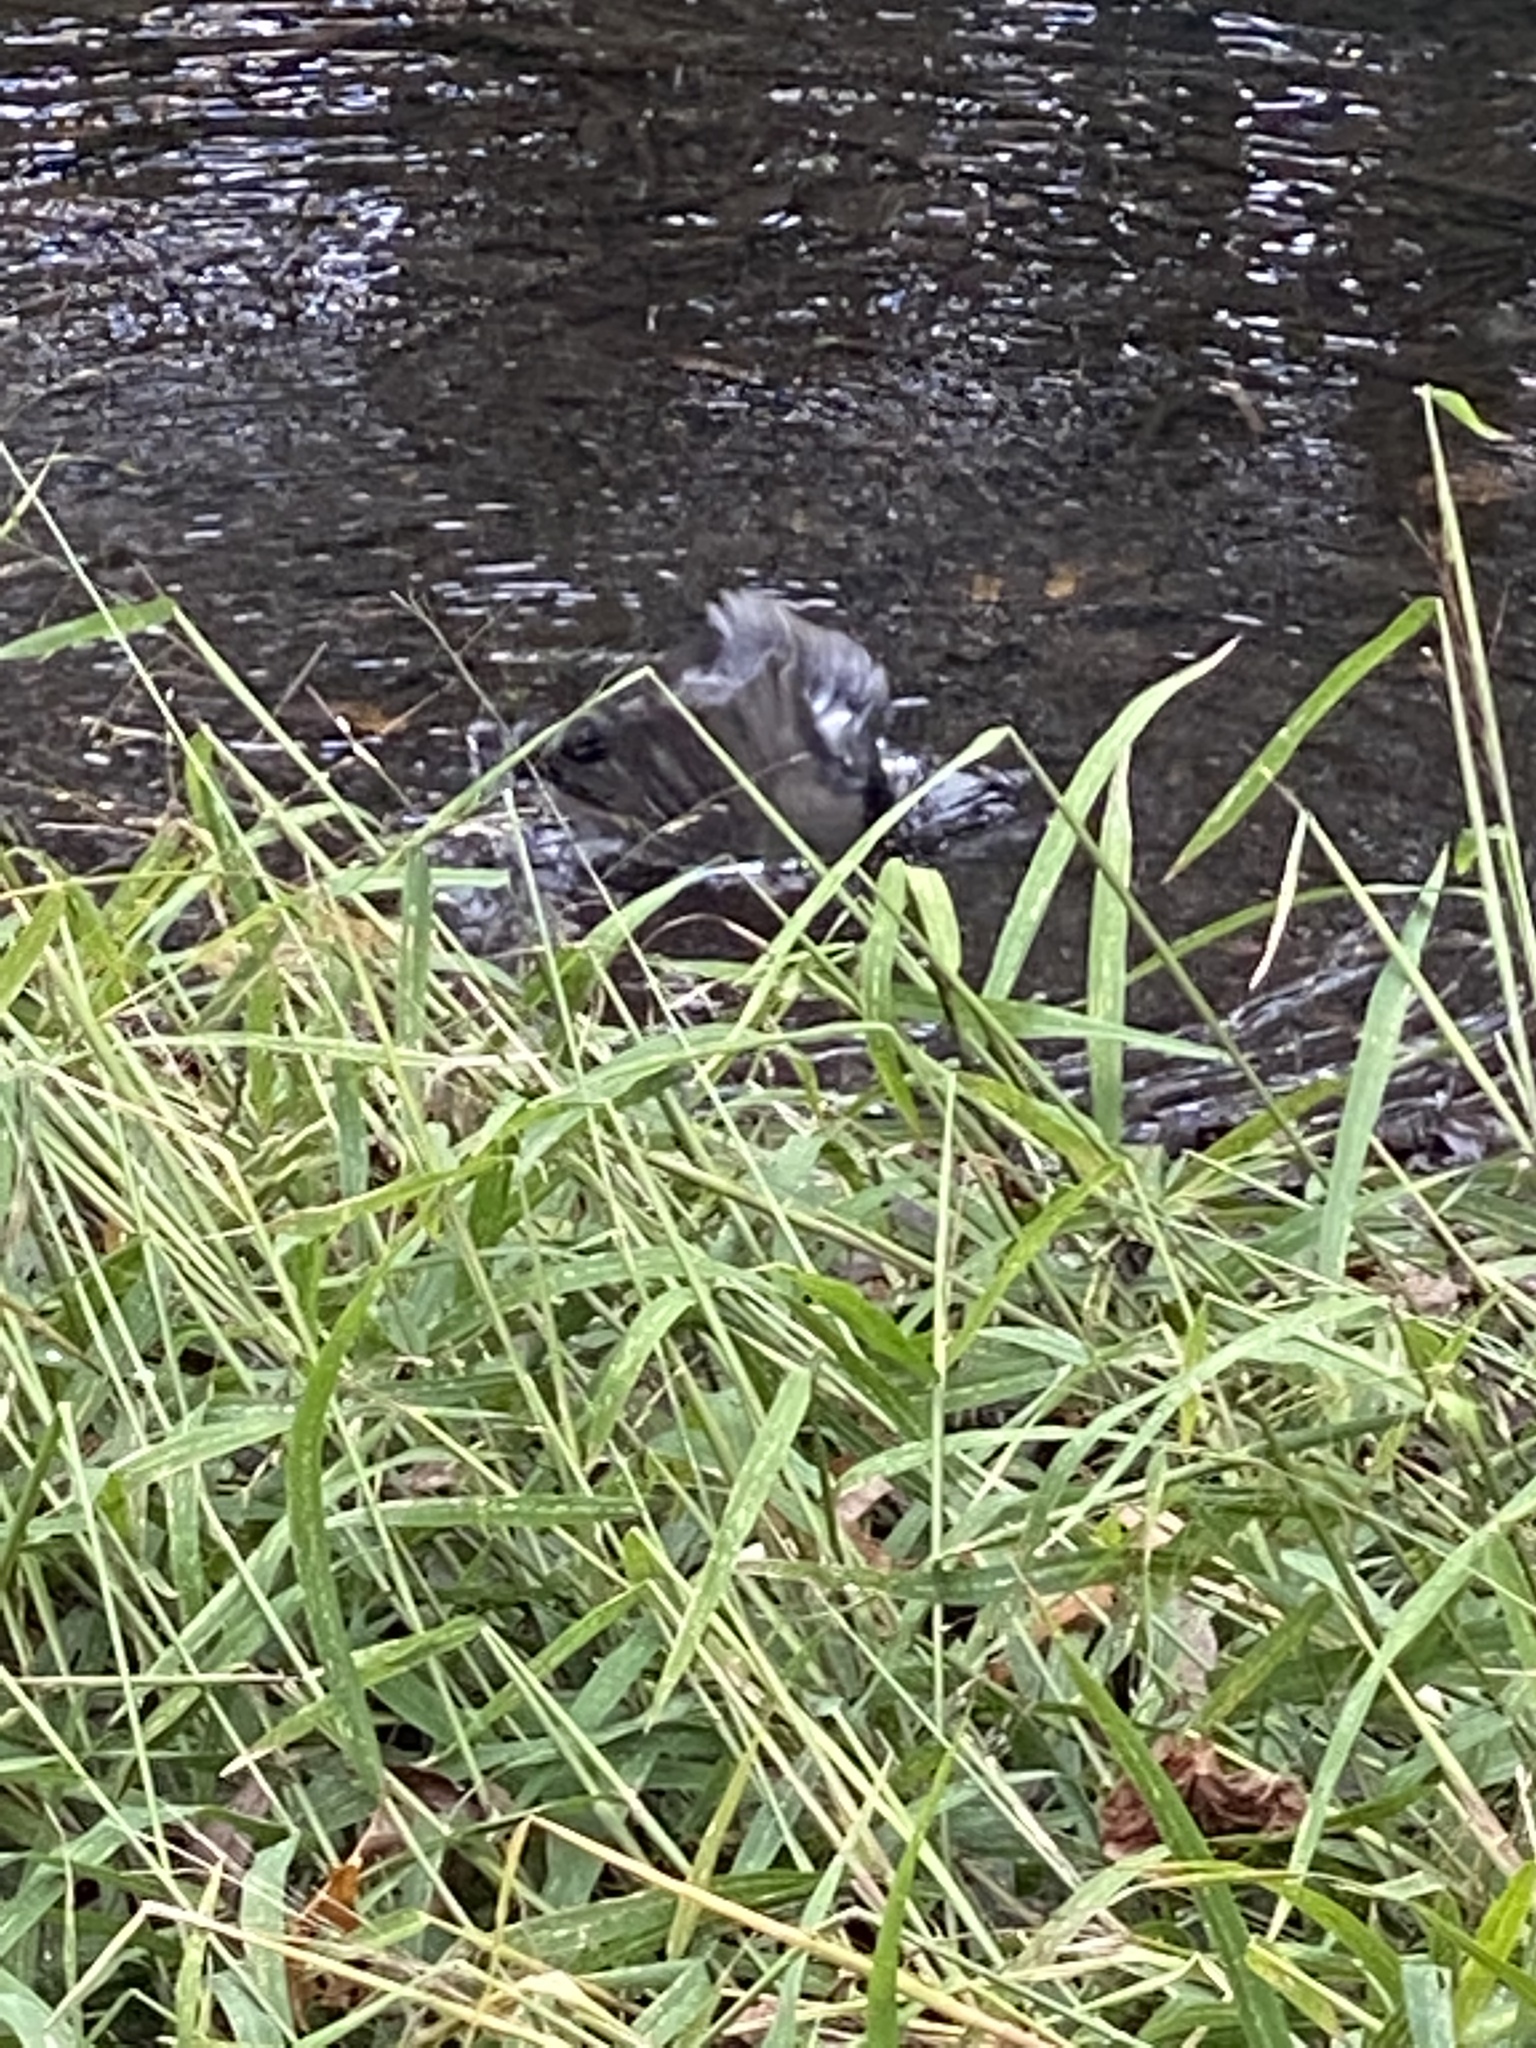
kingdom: Animalia
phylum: Chordata
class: Aves
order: Passeriformes
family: Turdidae
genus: Turdus
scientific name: Turdus migratorius
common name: American robin
